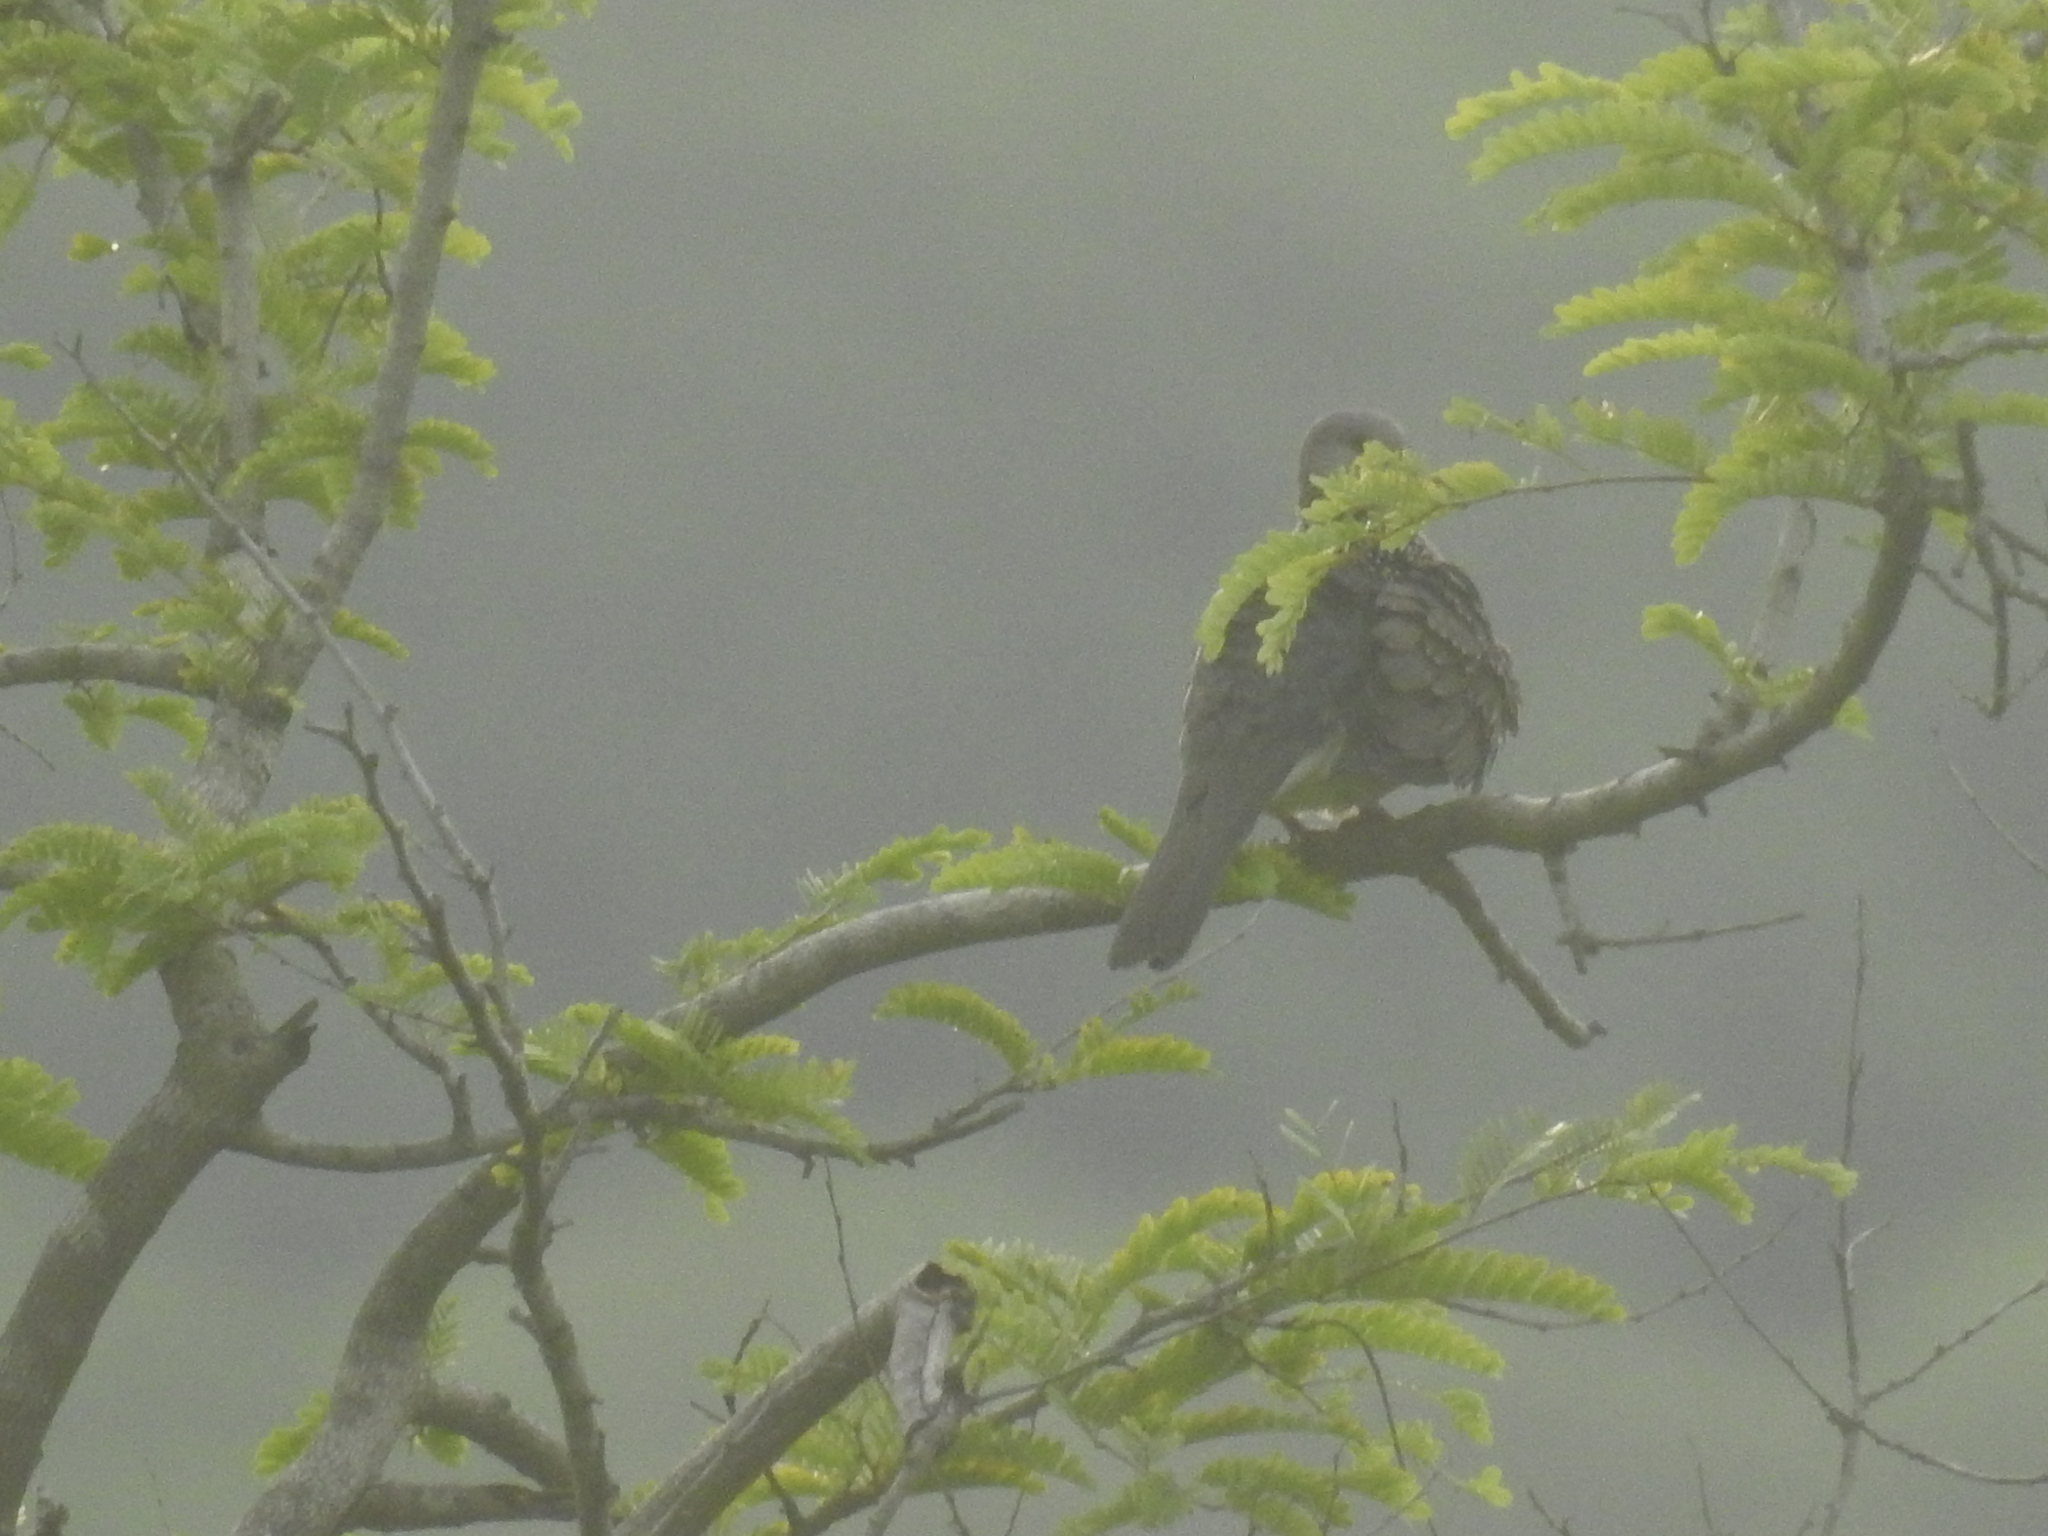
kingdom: Animalia
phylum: Chordata
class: Aves
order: Columbiformes
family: Columbidae
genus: Spilopelia
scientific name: Spilopelia chinensis
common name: Spotted dove
